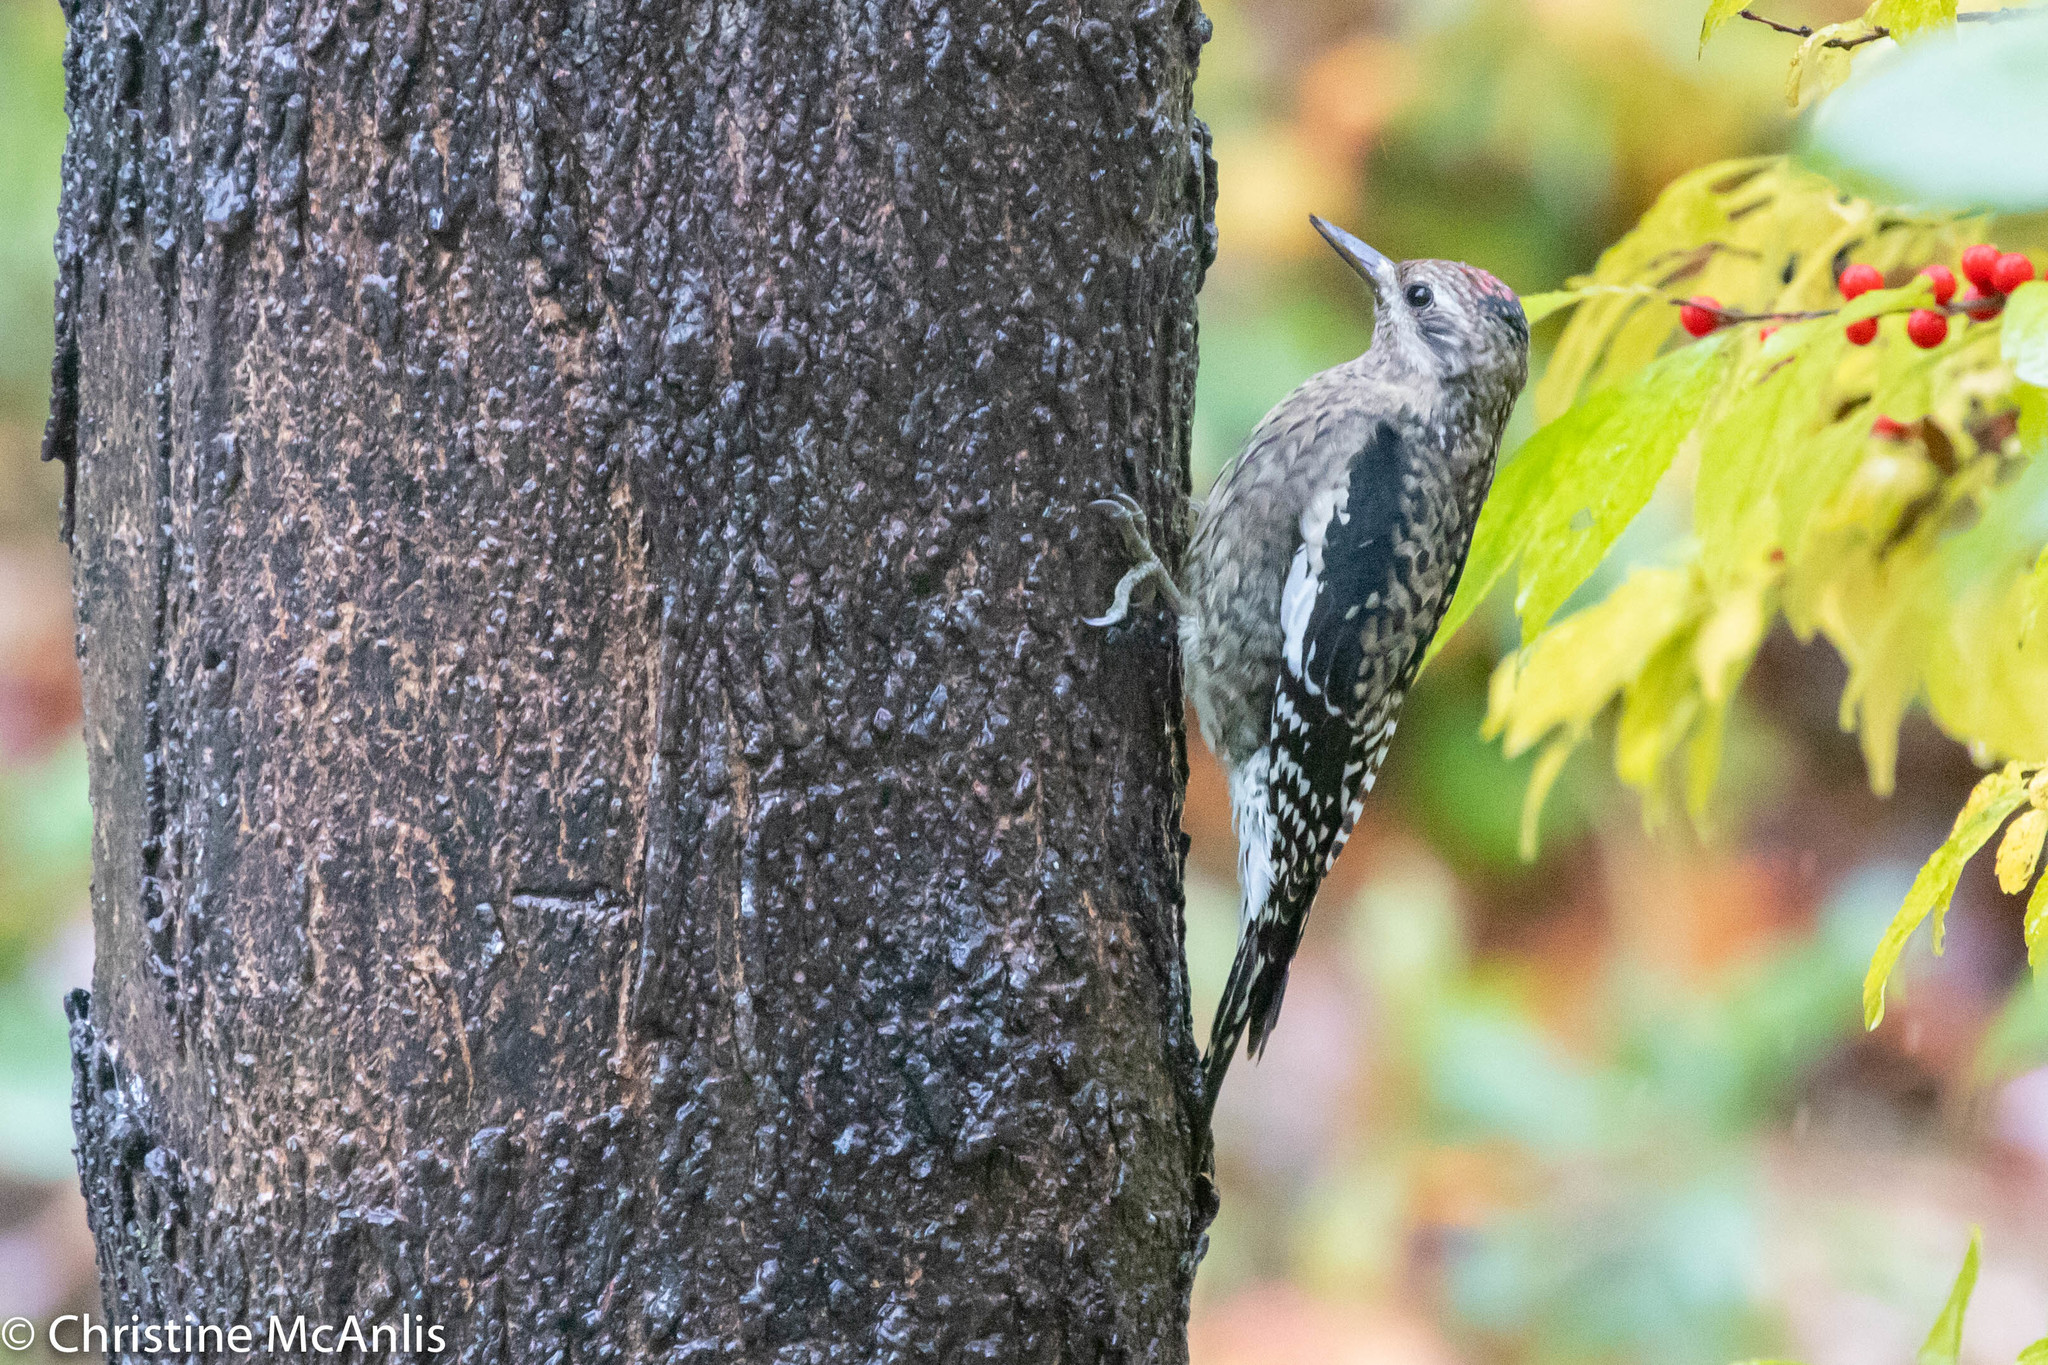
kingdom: Animalia
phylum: Chordata
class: Aves
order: Piciformes
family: Picidae
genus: Sphyrapicus
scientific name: Sphyrapicus varius
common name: Yellow-bellied sapsucker
